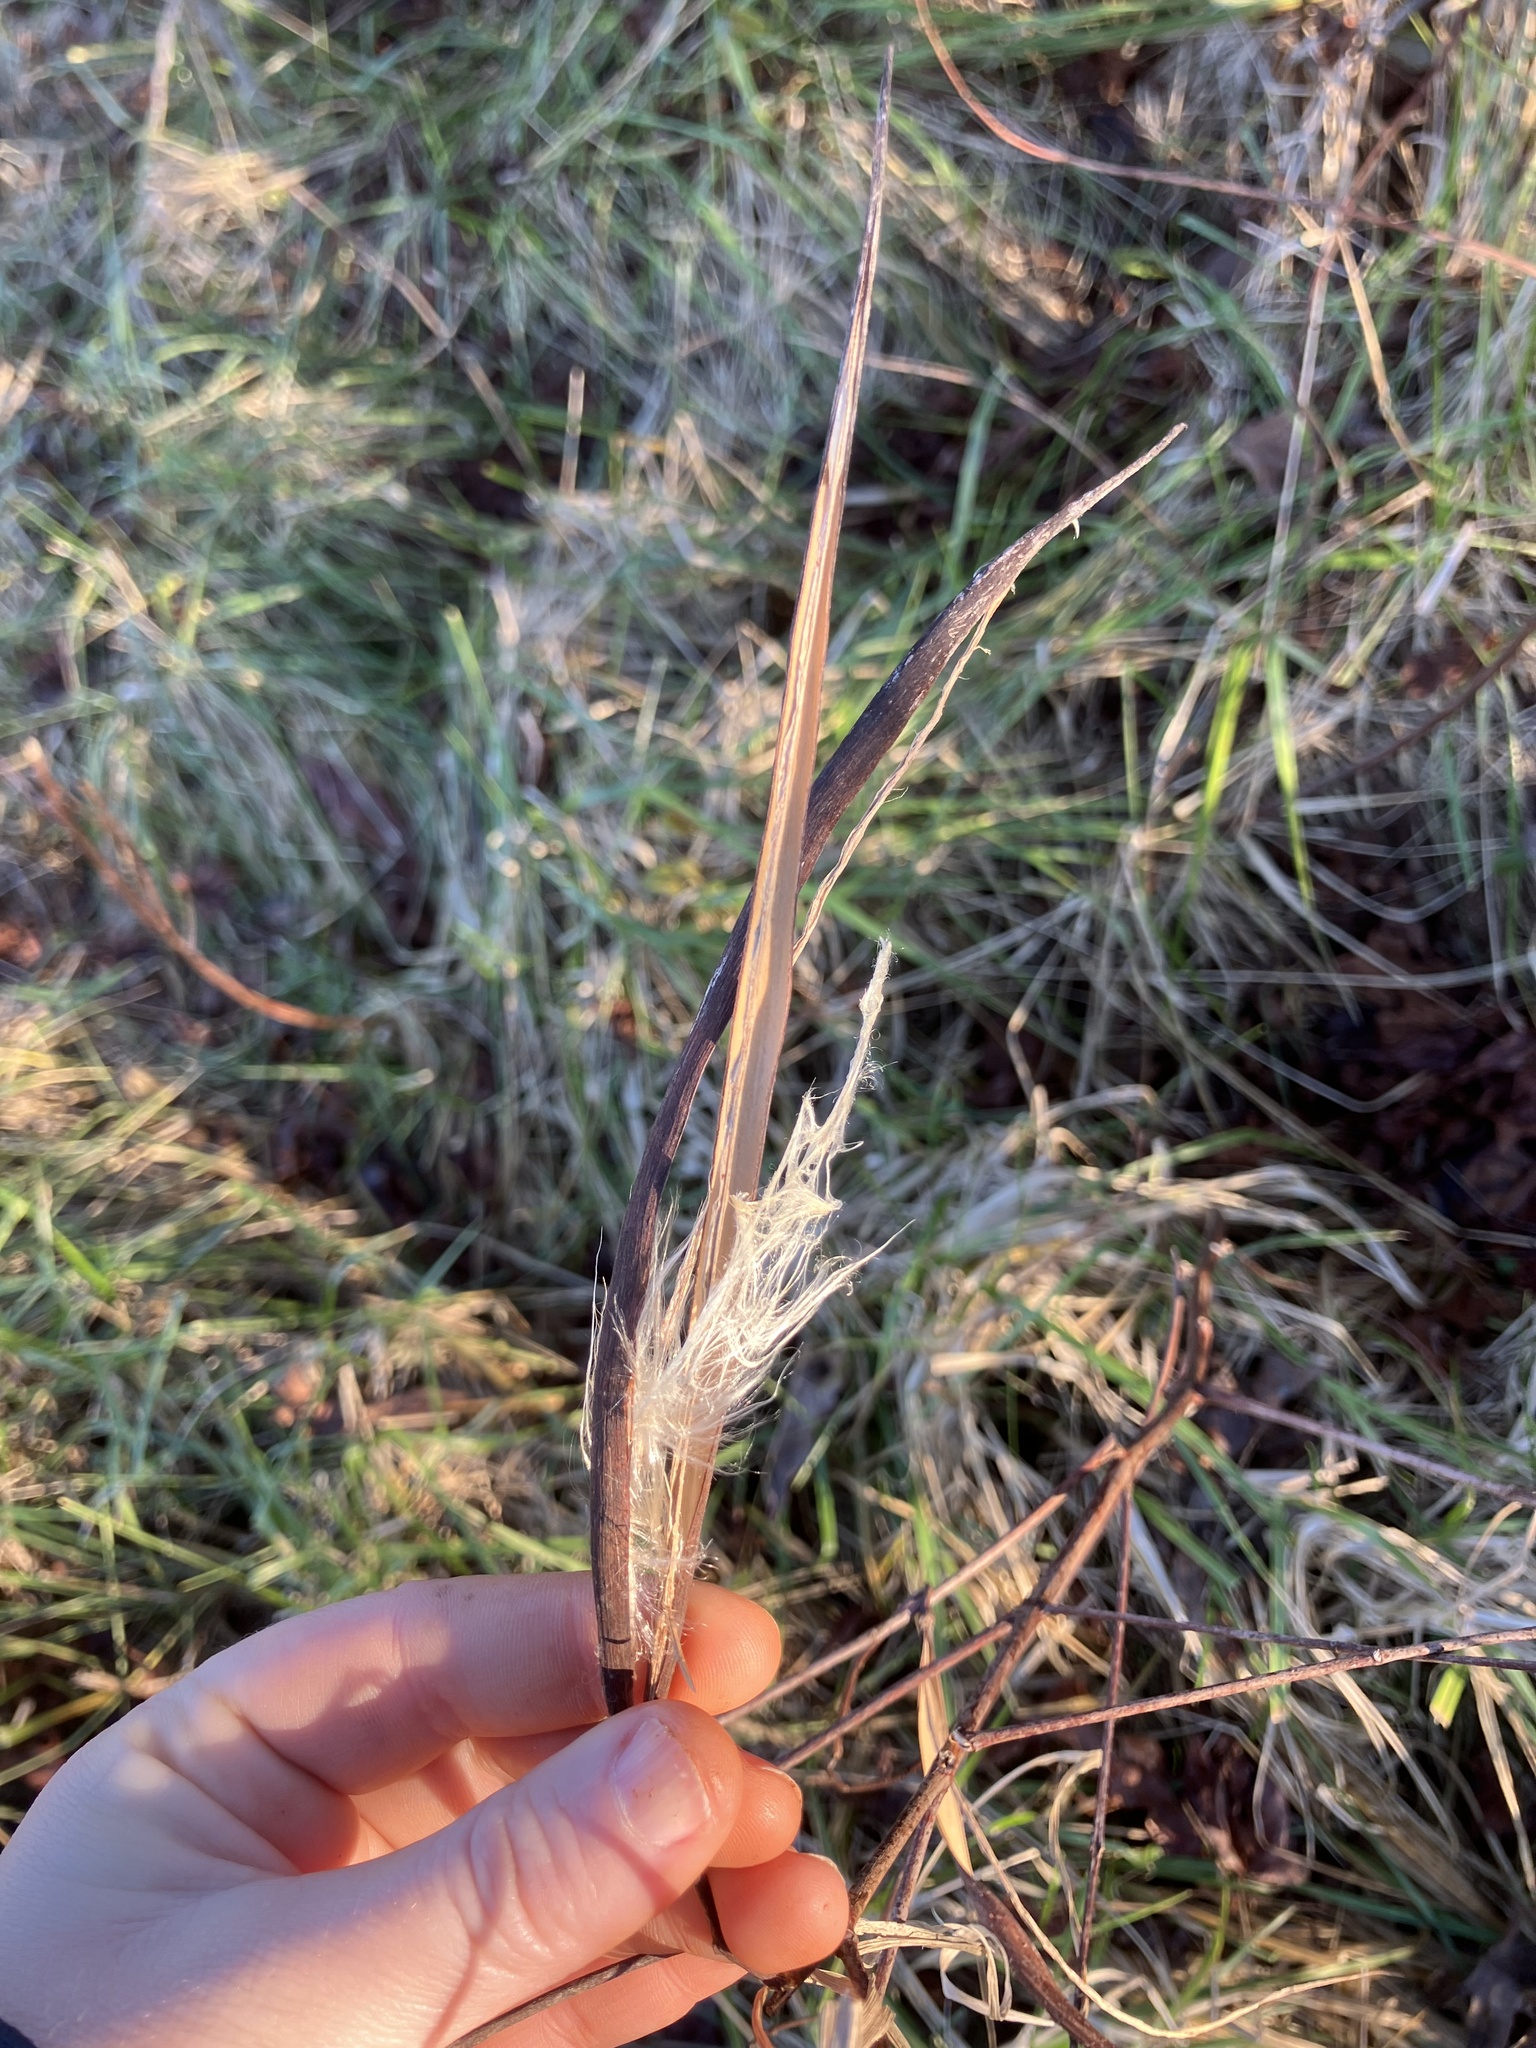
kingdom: Plantae
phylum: Tracheophyta
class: Magnoliopsida
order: Gentianales
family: Apocynaceae
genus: Apocynum
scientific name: Apocynum cannabinum
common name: Hemp dogbane
